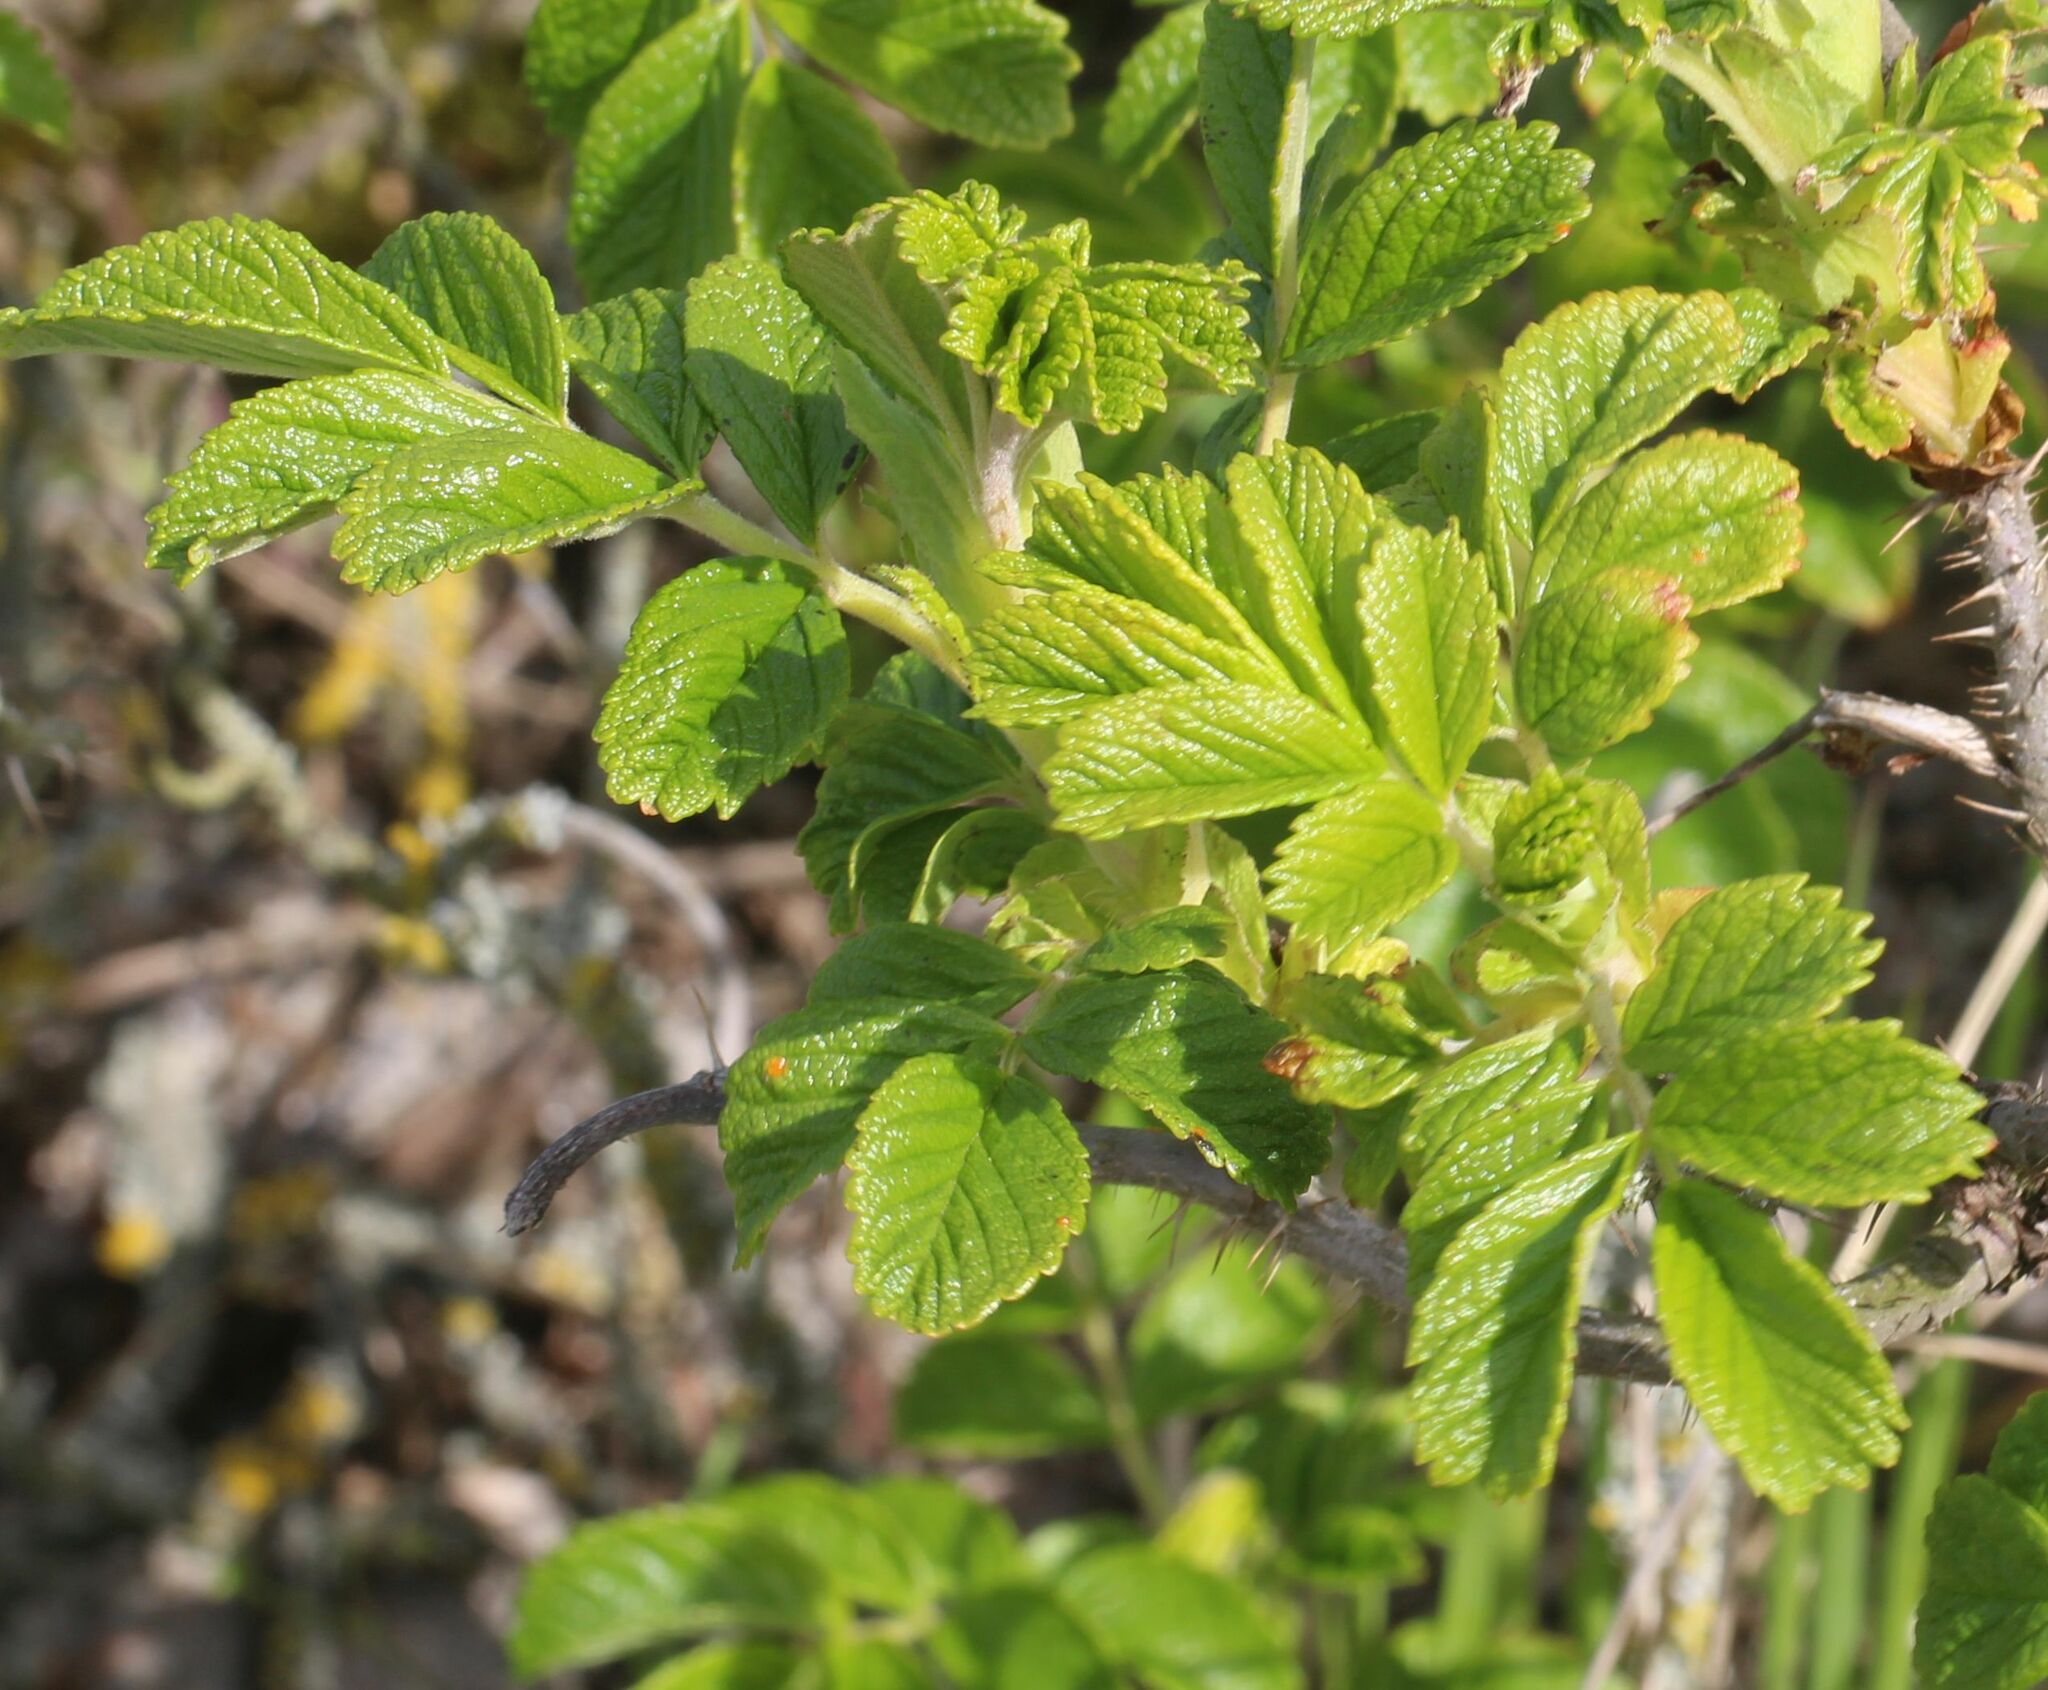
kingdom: Plantae
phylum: Tracheophyta
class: Magnoliopsida
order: Rosales
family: Rosaceae
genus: Rosa
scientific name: Rosa rugosa
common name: Japanese rose
